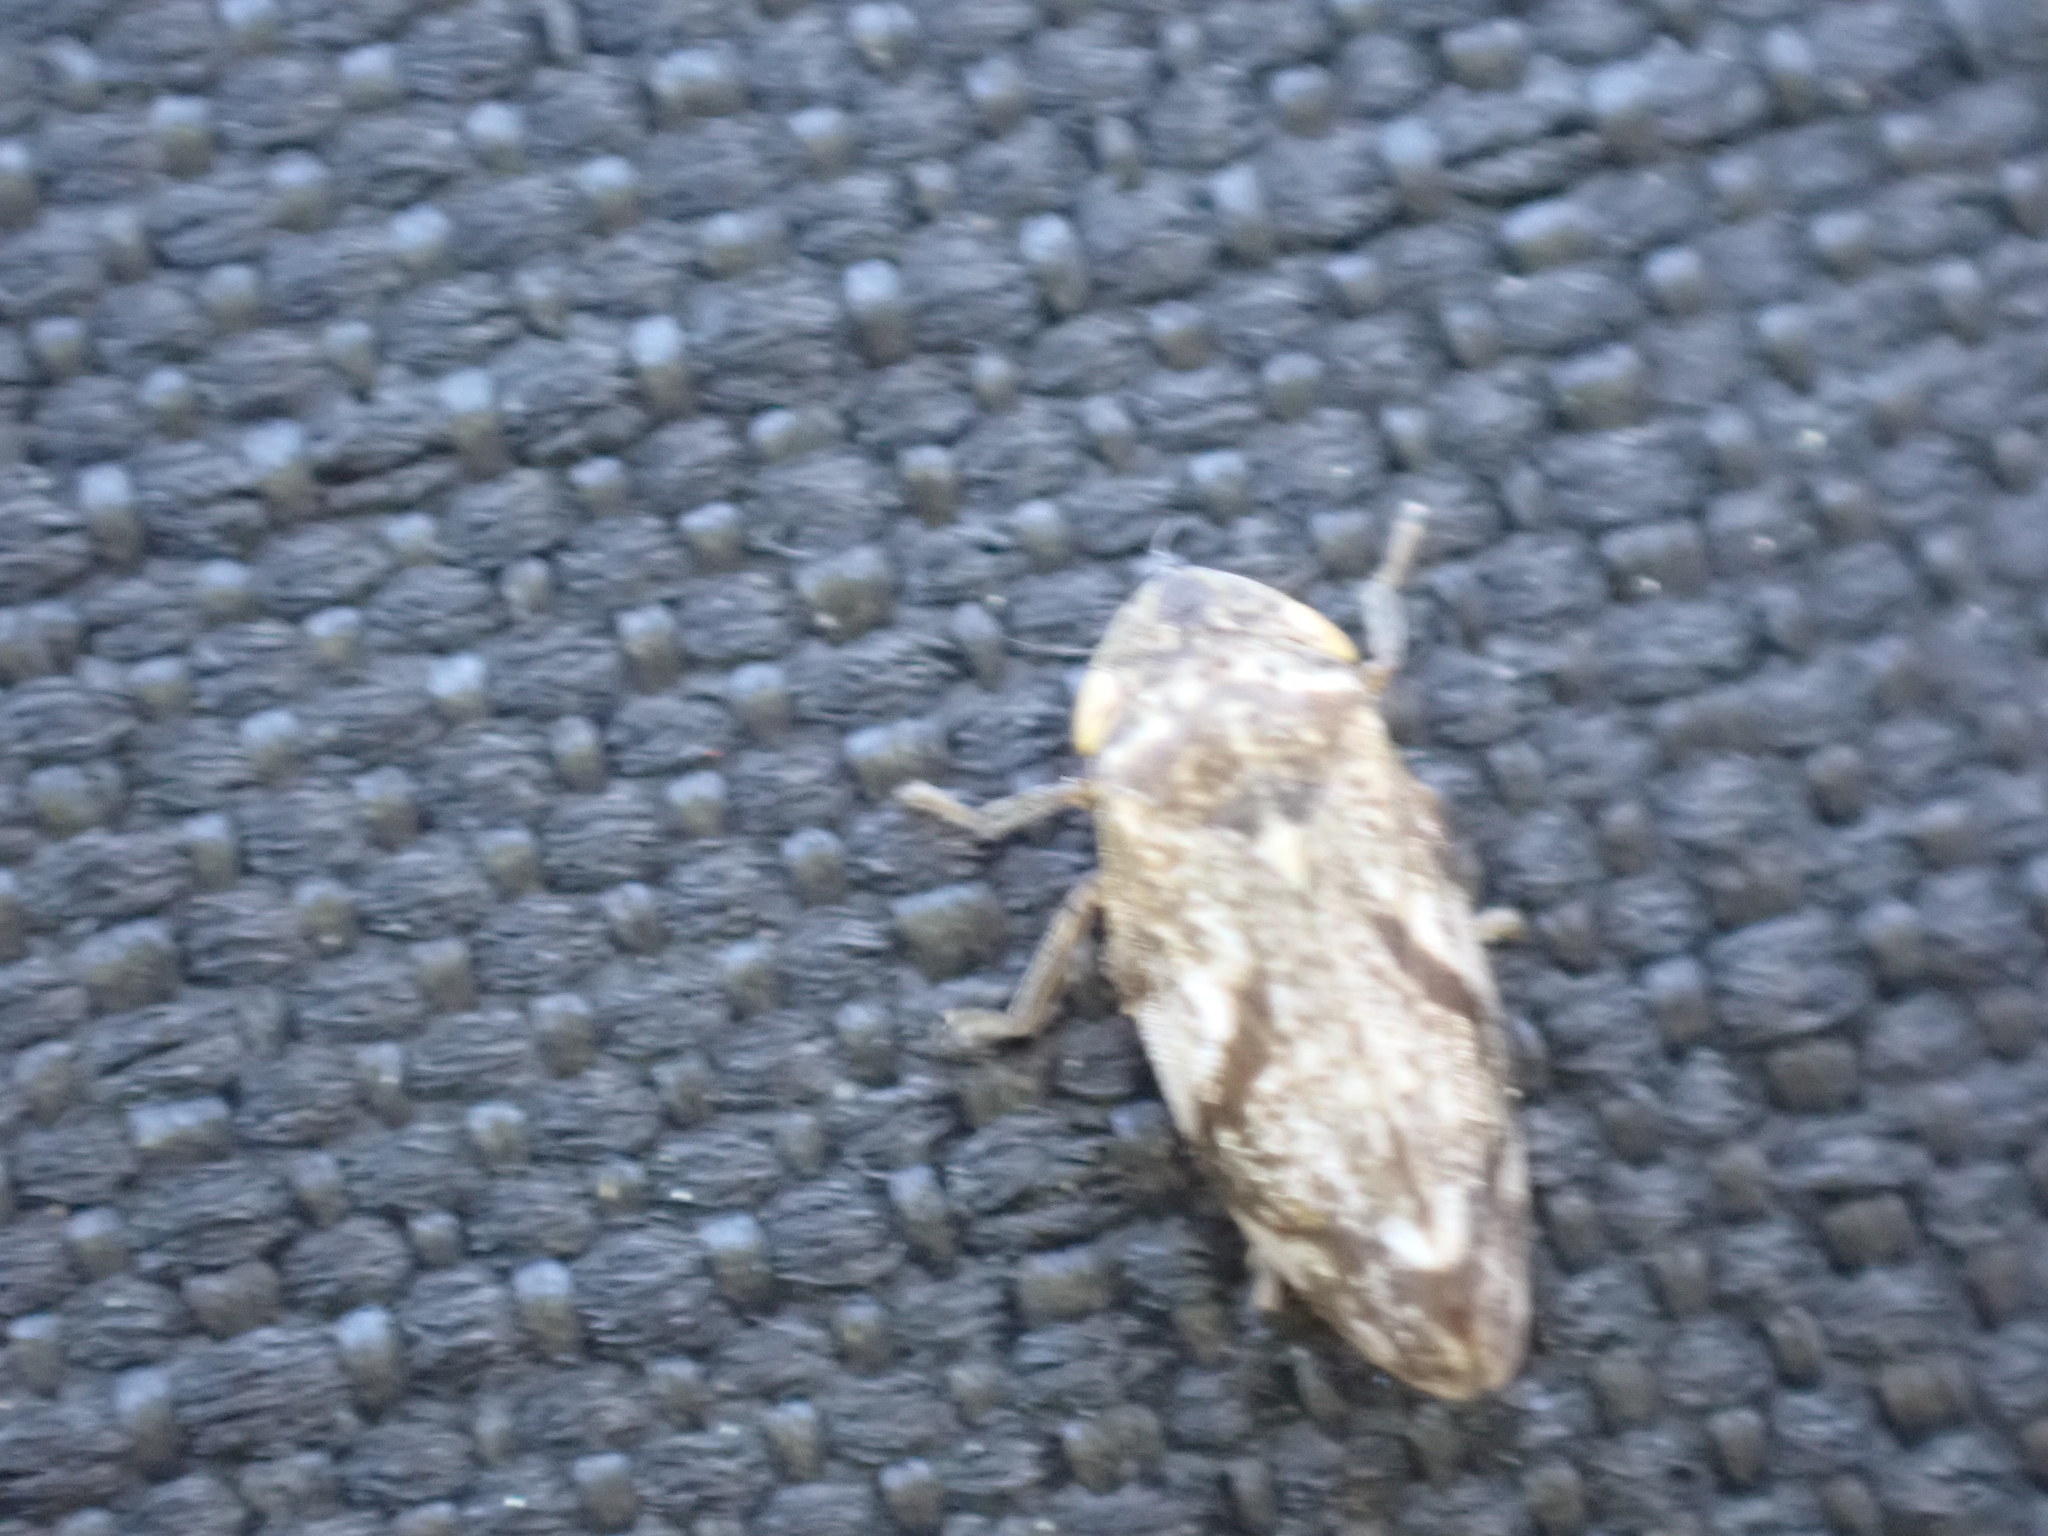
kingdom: Animalia
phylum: Arthropoda
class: Insecta
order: Hemiptera
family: Aphrophoridae
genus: Philaenus
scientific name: Philaenus spumarius
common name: Meadow spittlebug
